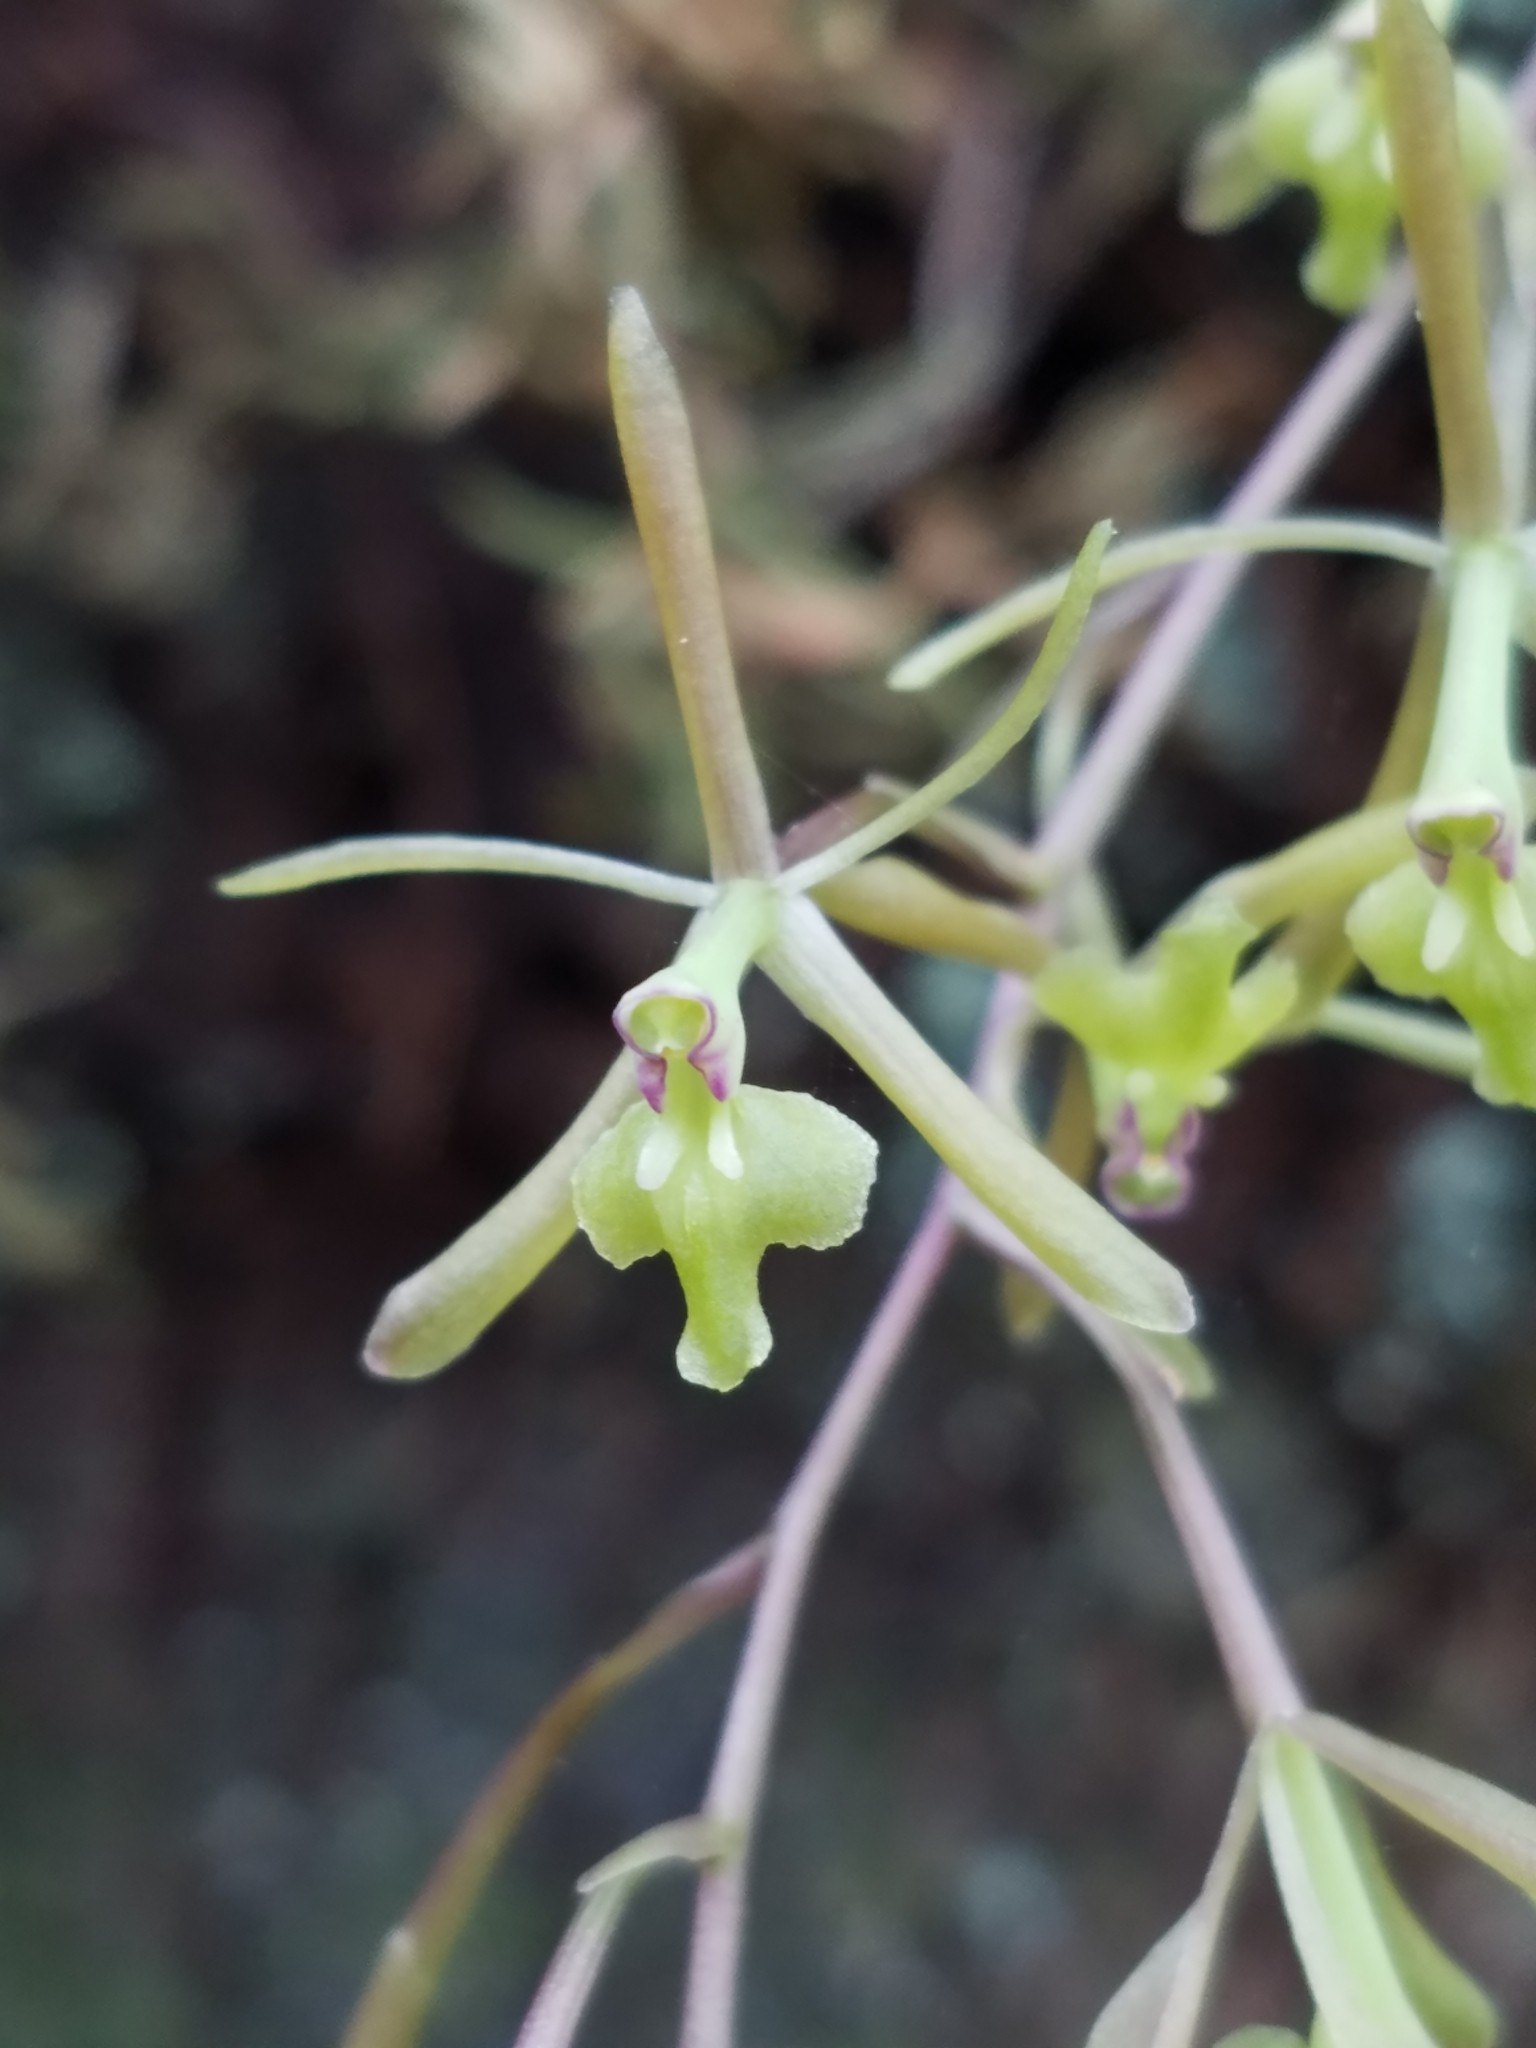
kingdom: Plantae
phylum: Tracheophyta
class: Liliopsida
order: Asparagales
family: Orchidaceae
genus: Epidendrum
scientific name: Epidendrum conopseum
